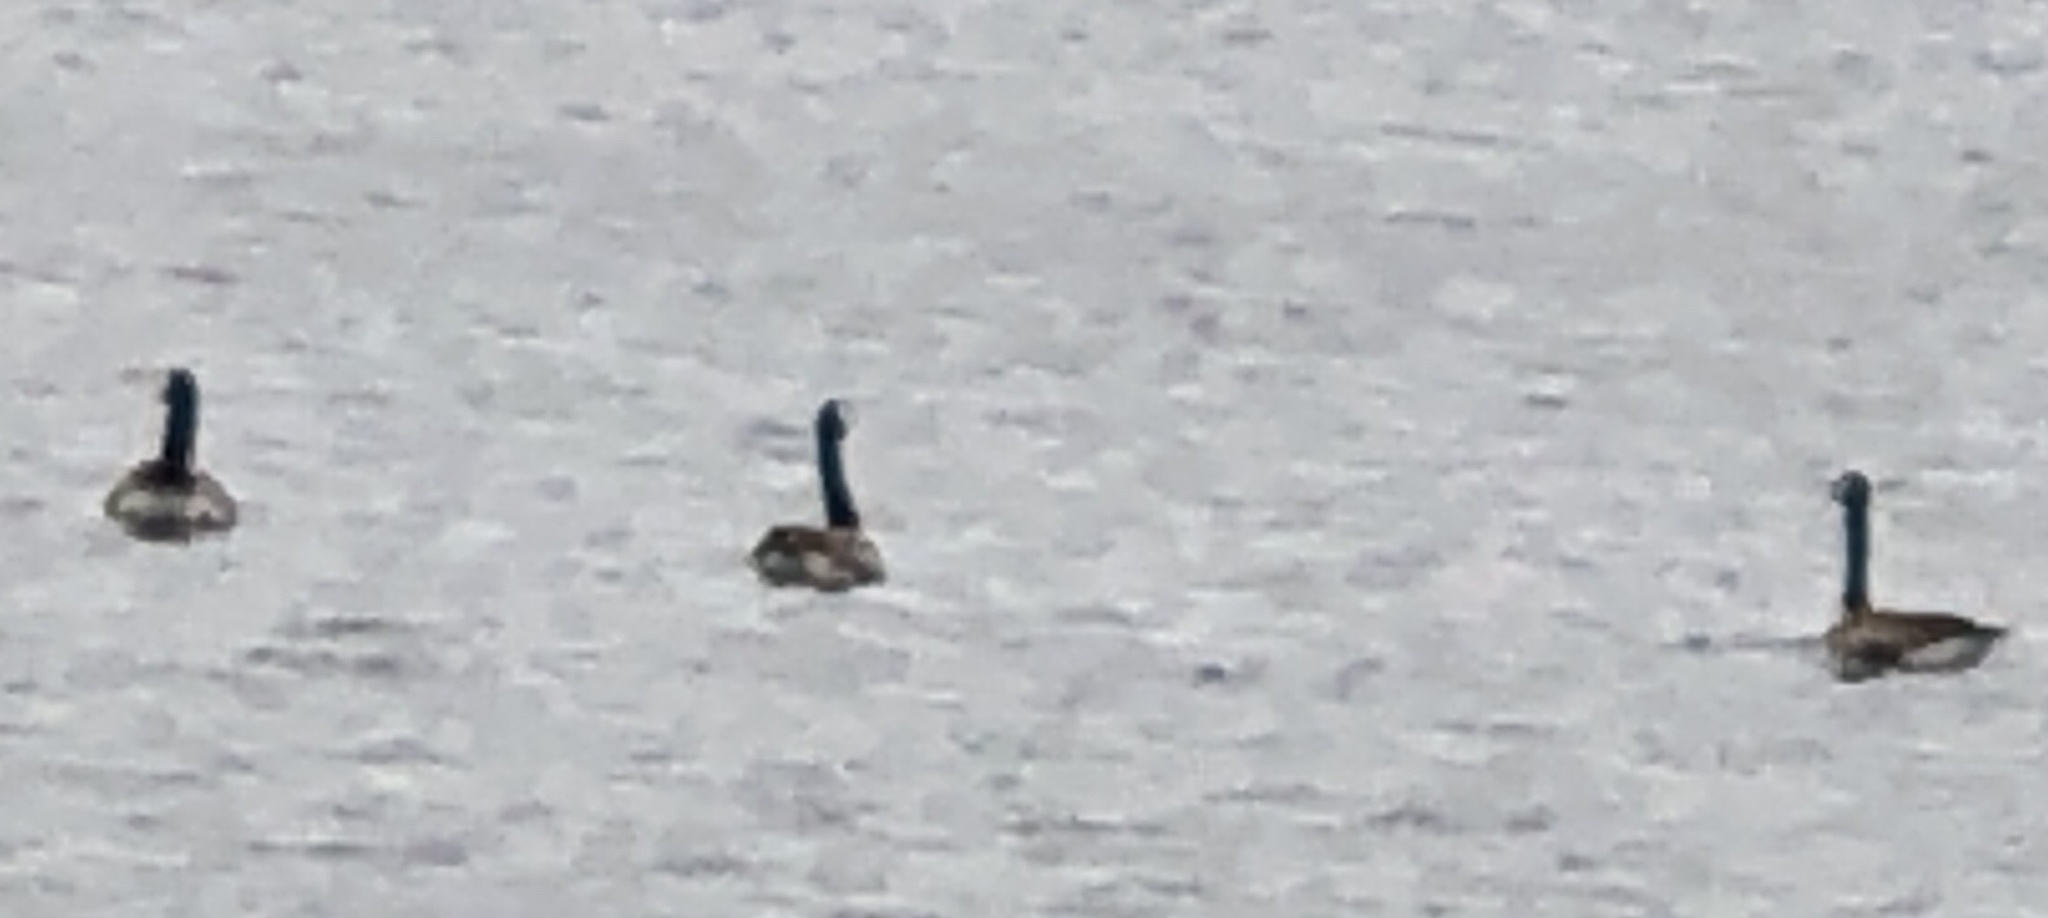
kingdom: Animalia
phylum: Chordata
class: Aves
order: Anseriformes
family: Anatidae
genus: Branta
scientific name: Branta canadensis
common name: Canada goose
